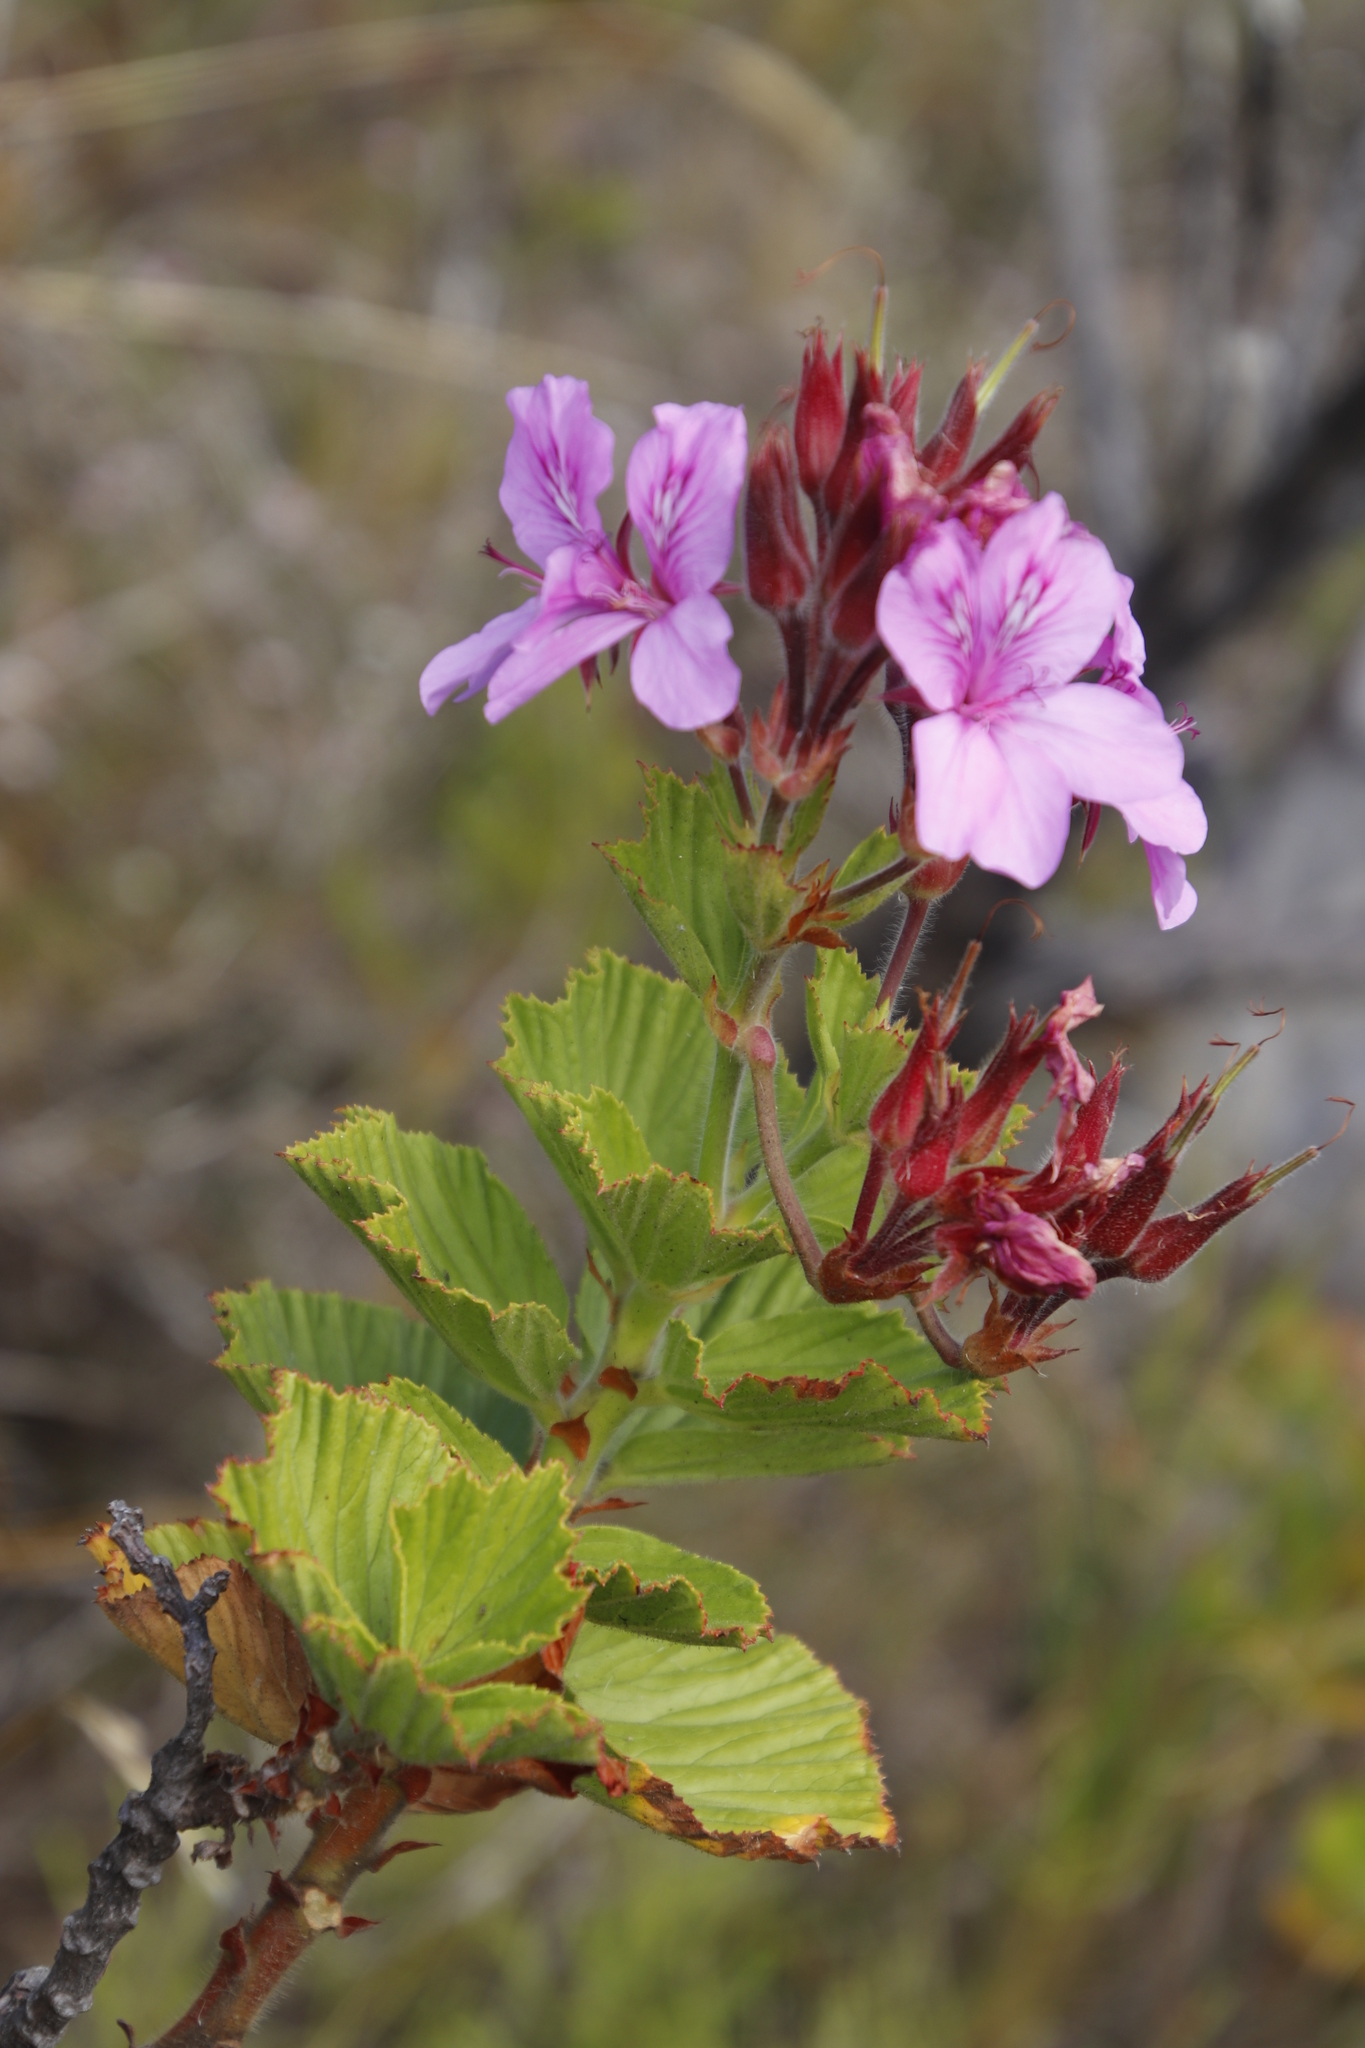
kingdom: Plantae
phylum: Tracheophyta
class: Magnoliopsida
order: Geraniales
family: Geraniaceae
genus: Pelargonium
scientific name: Pelargonium cucullatum
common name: Tree pelargonium
